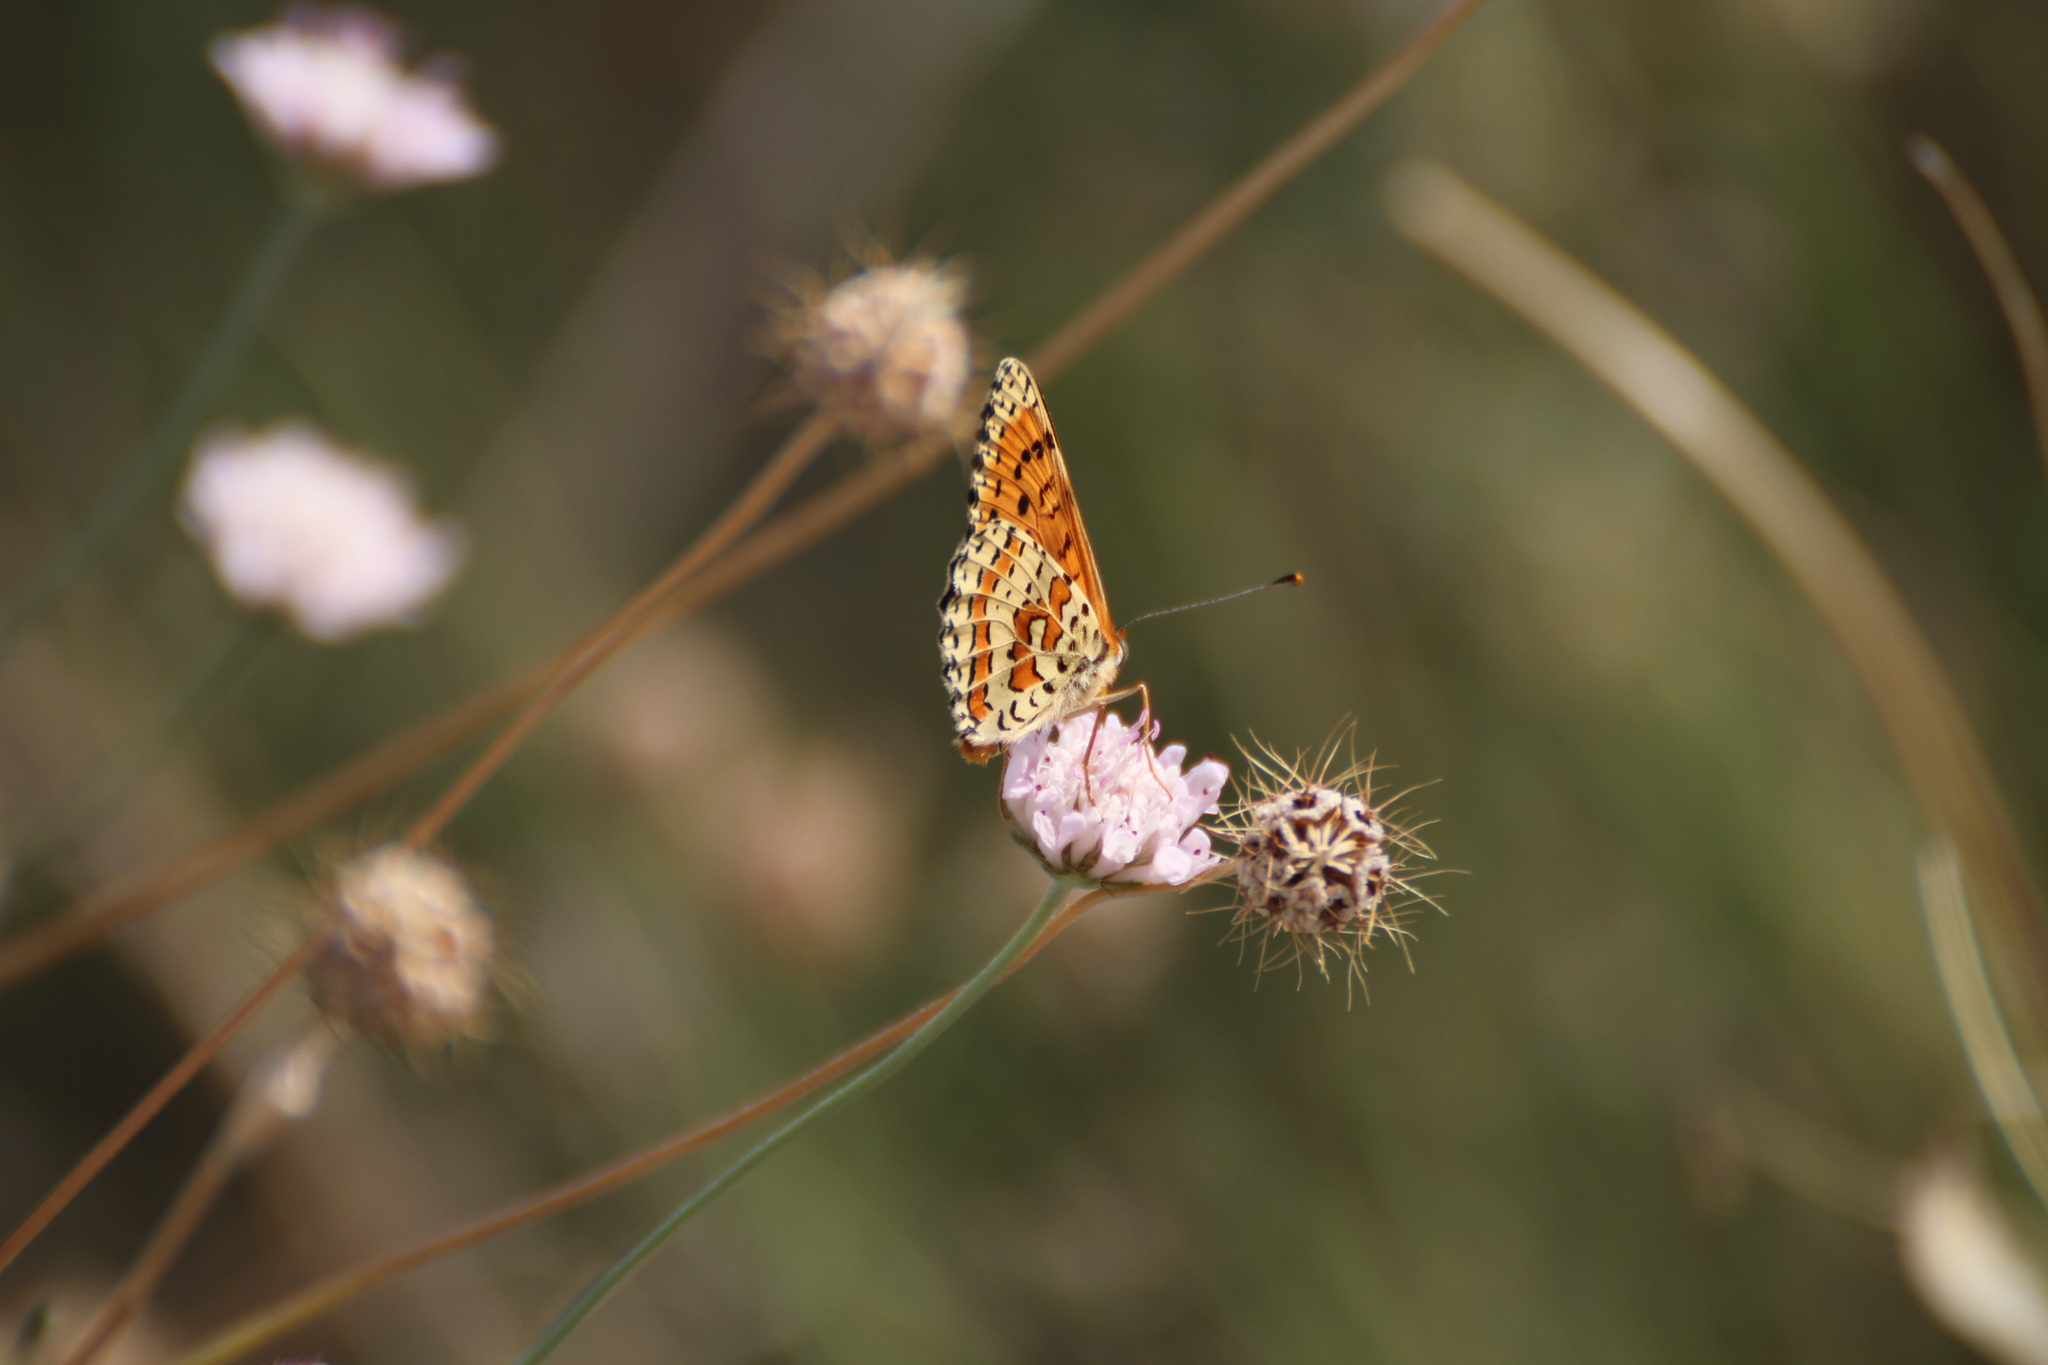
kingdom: Animalia
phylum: Arthropoda
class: Insecta
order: Lepidoptera
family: Nymphalidae
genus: Melitaea
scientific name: Melitaea didyma
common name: Spotted fritillary
